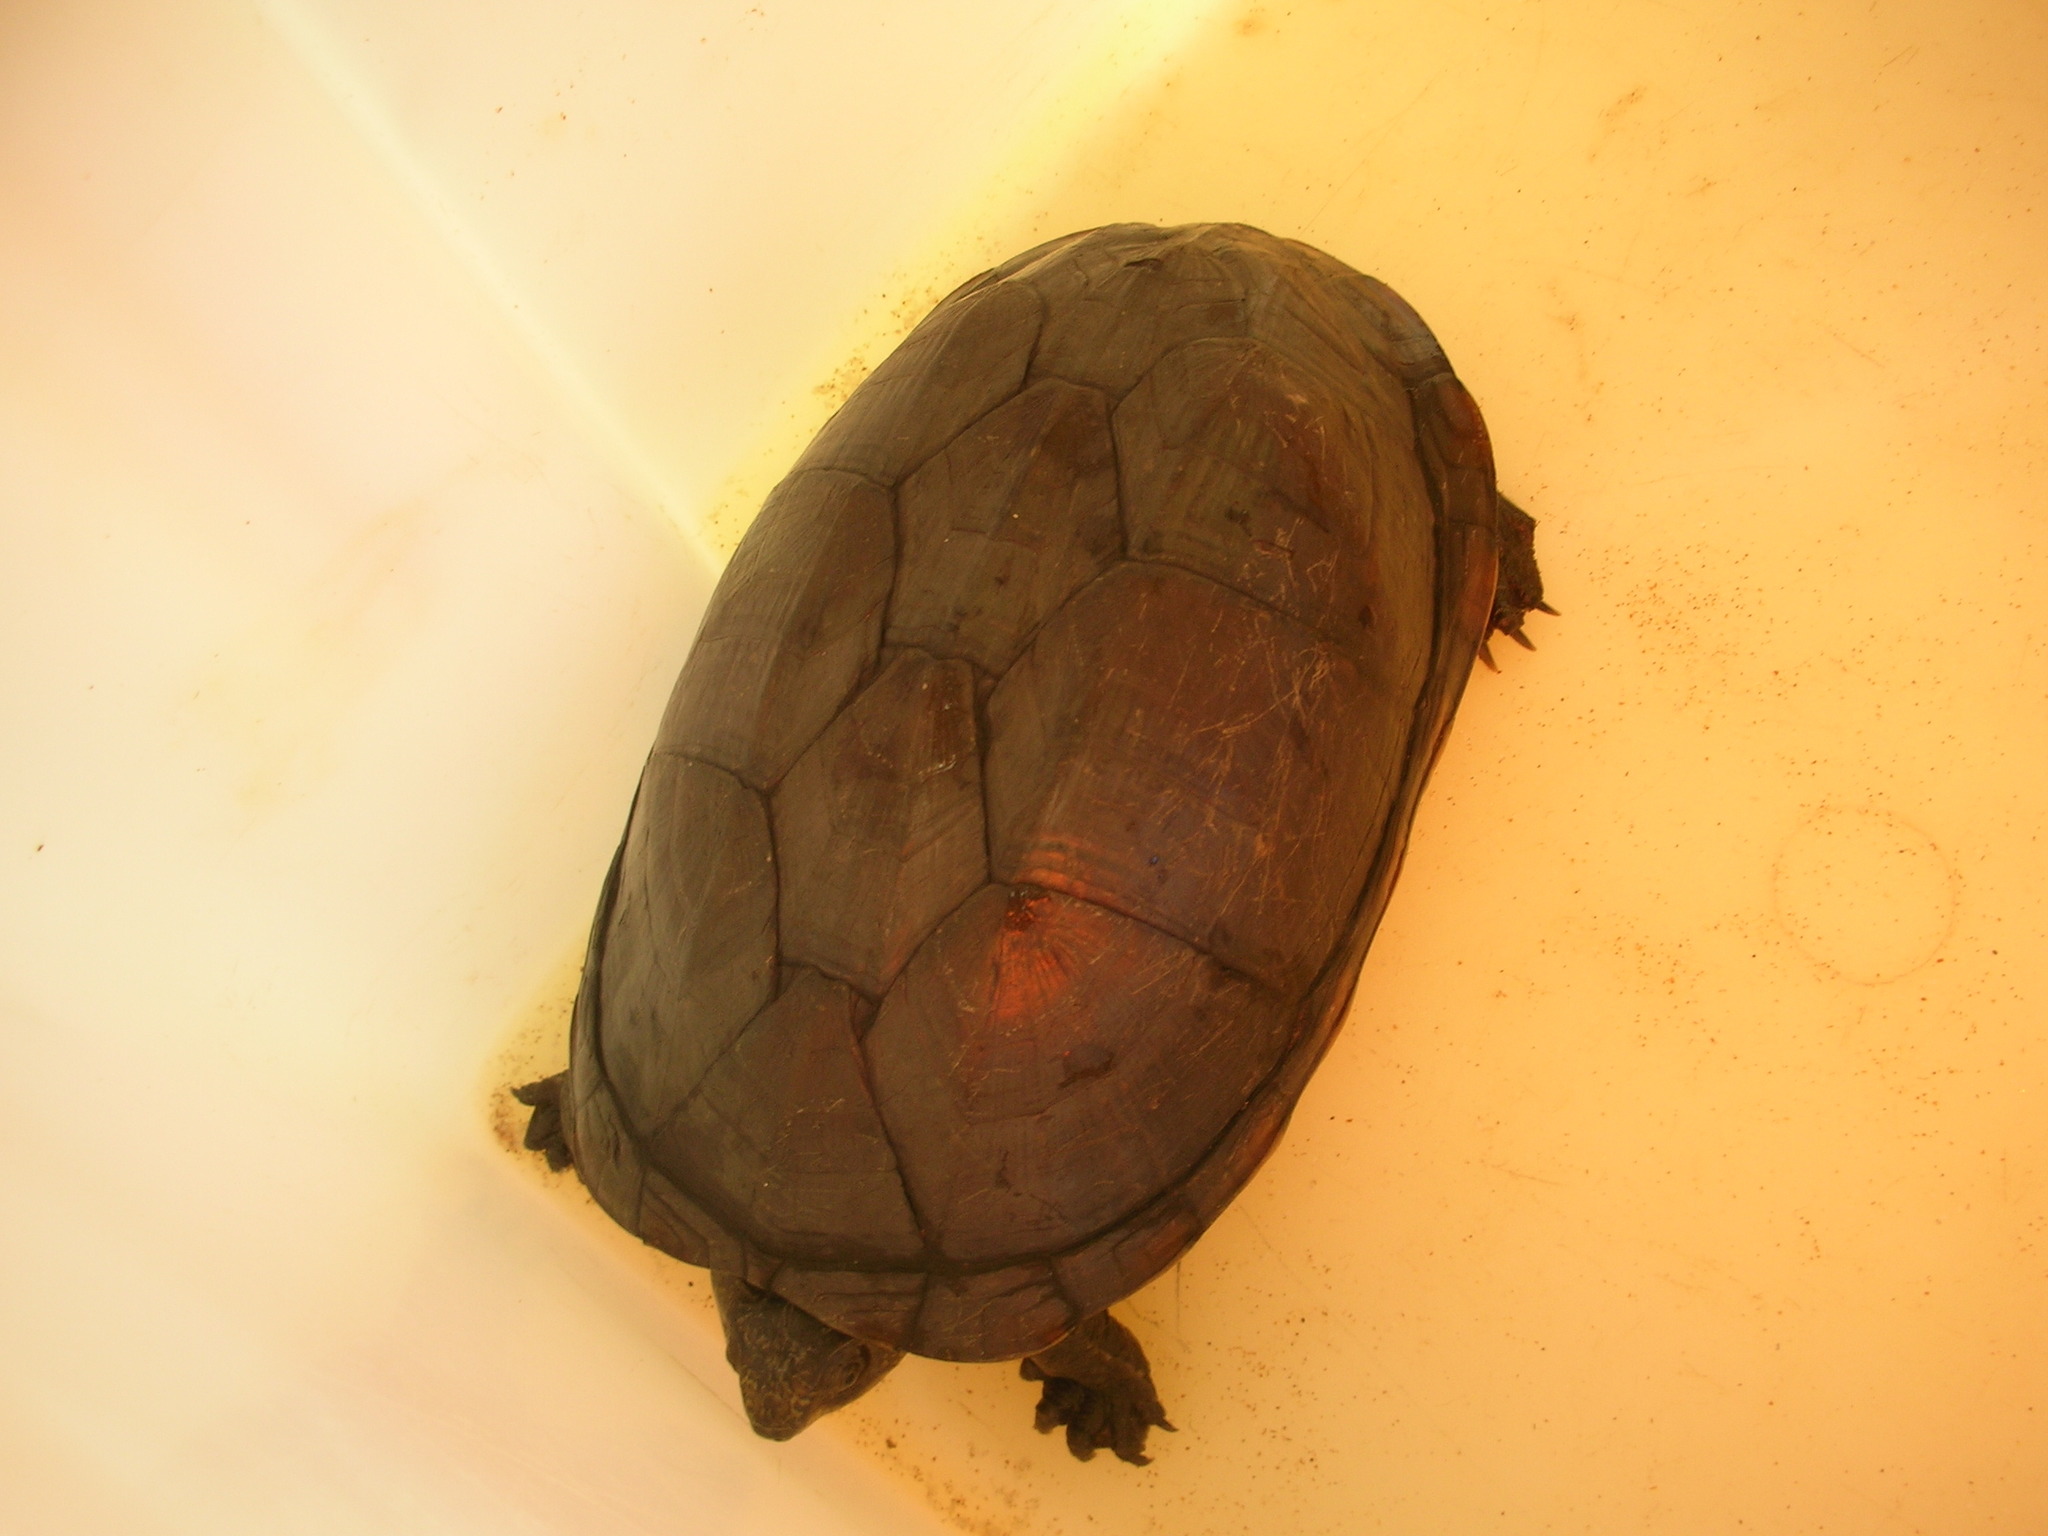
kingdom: Animalia
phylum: Chordata
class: Testudines
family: Kinosternidae
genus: Kinosternon
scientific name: Kinosternon scorpioides
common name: Scorpion mud turtle
